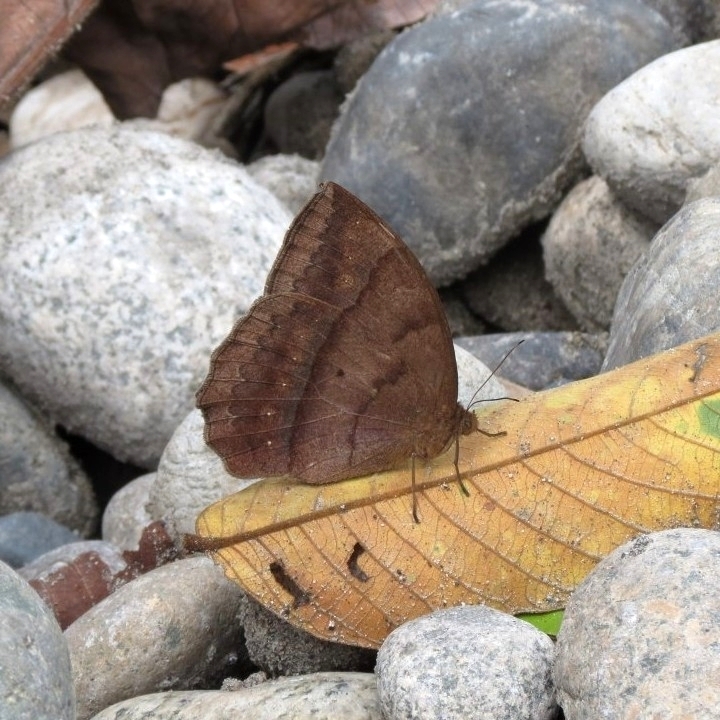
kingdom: Animalia
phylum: Arthropoda
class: Insecta
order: Lepidoptera
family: Nymphalidae
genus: Taygetis
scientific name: Taygetis mermeria
